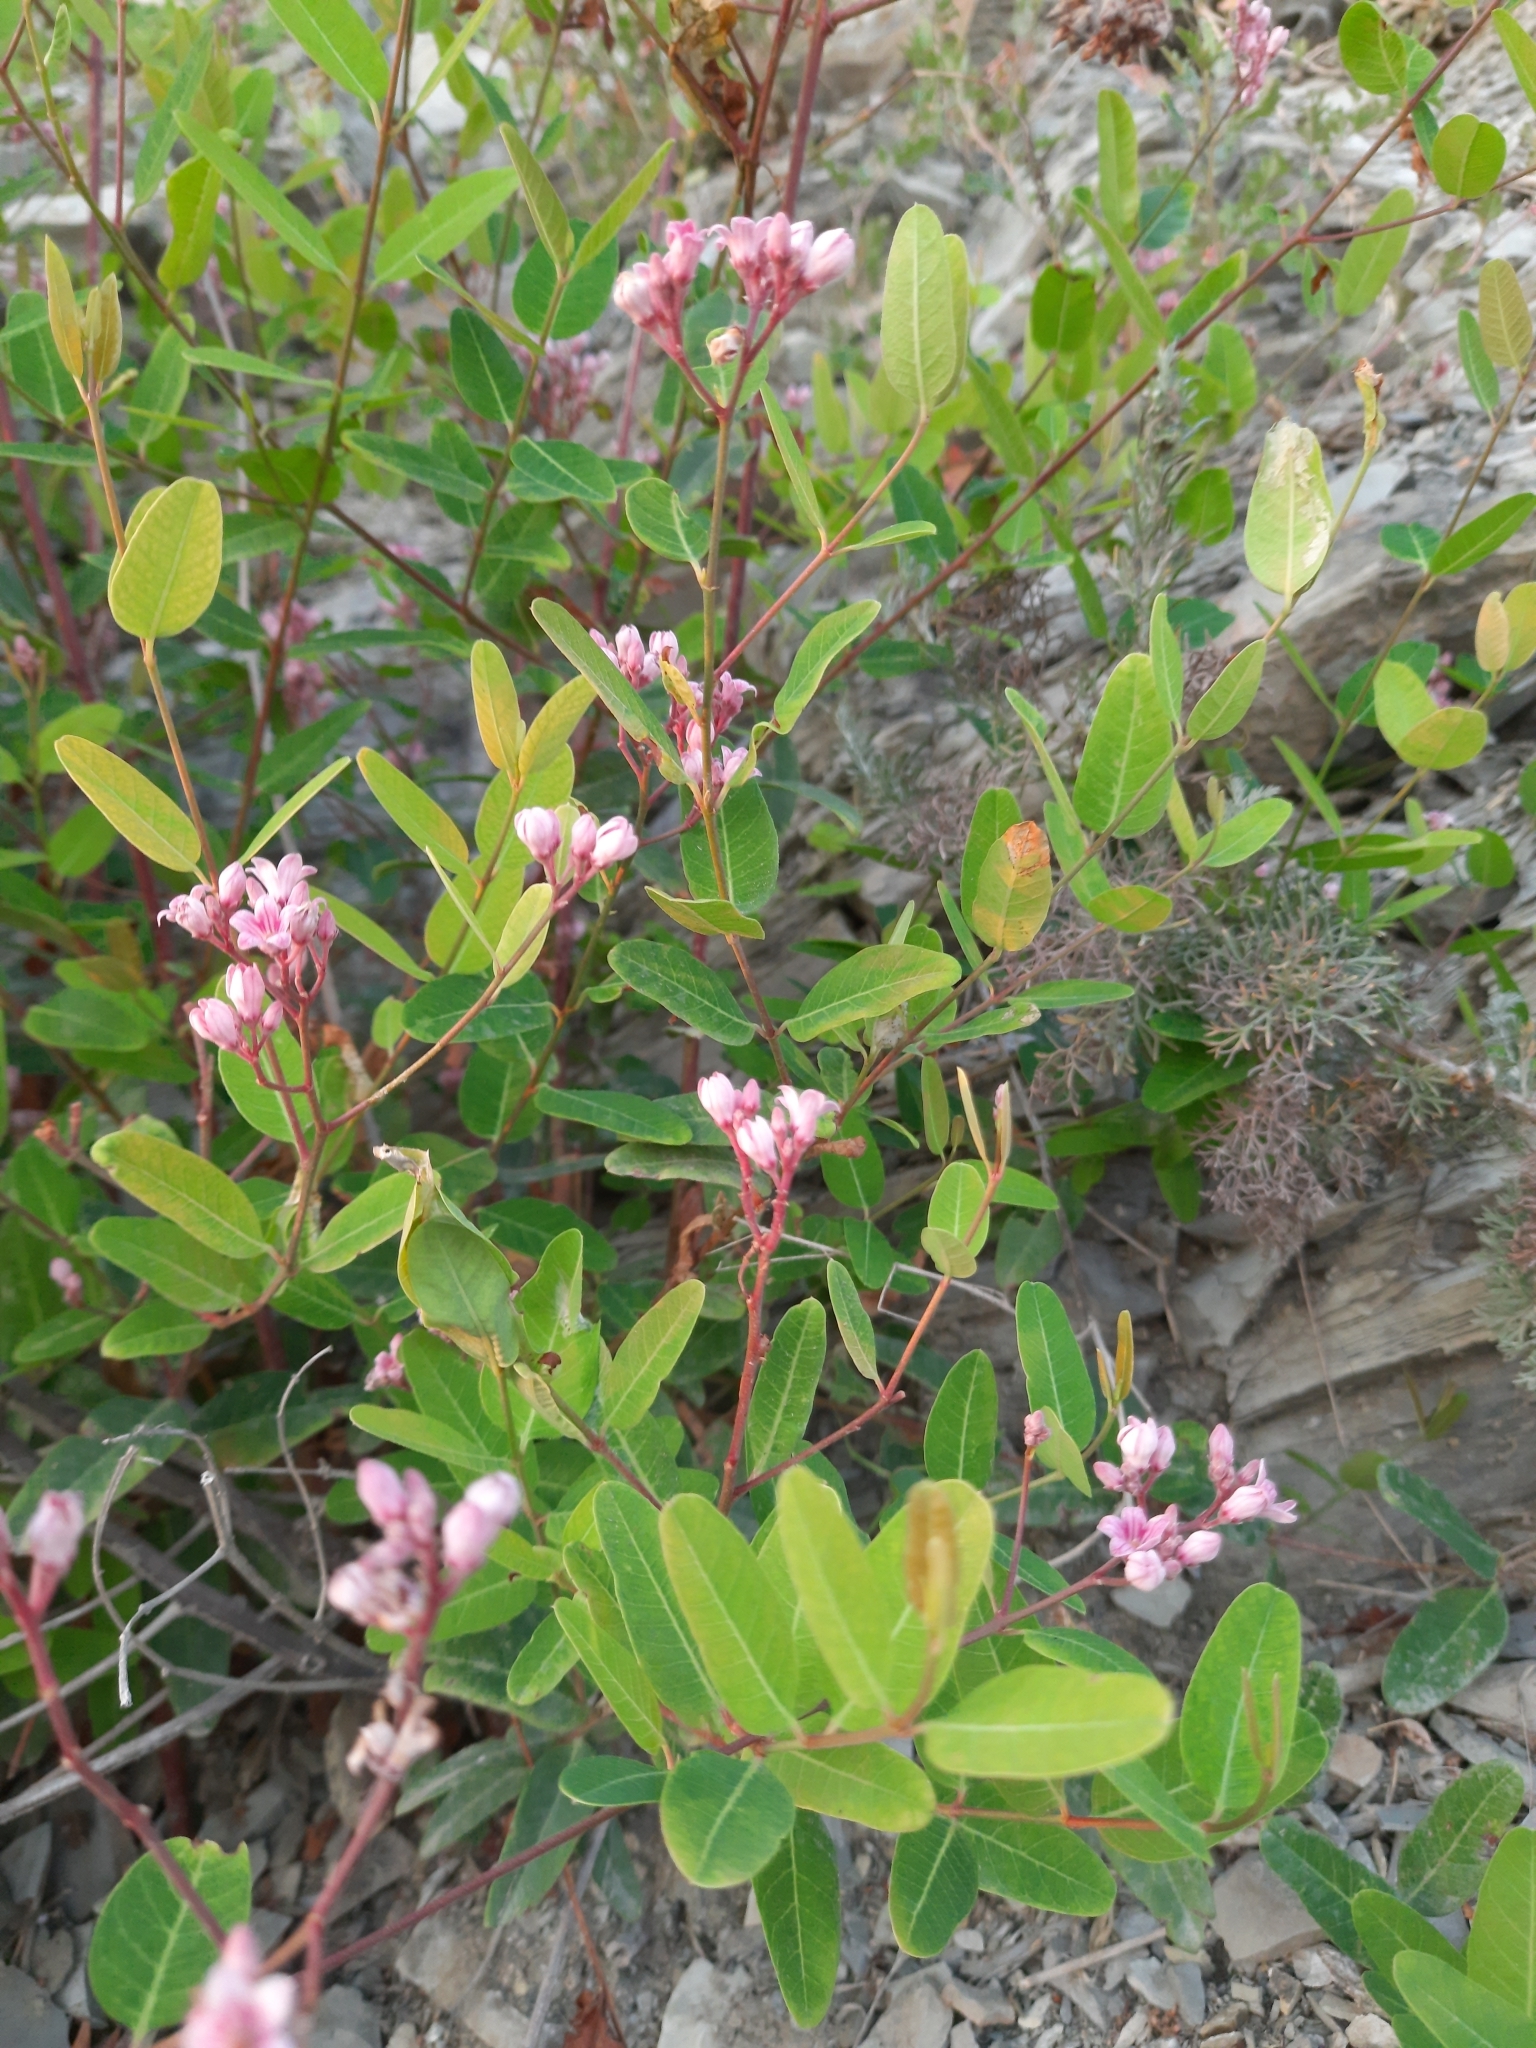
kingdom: Plantae
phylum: Tracheophyta
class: Magnoliopsida
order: Gentianales
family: Apocynaceae
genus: Poacynum
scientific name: Poacynum venetum
